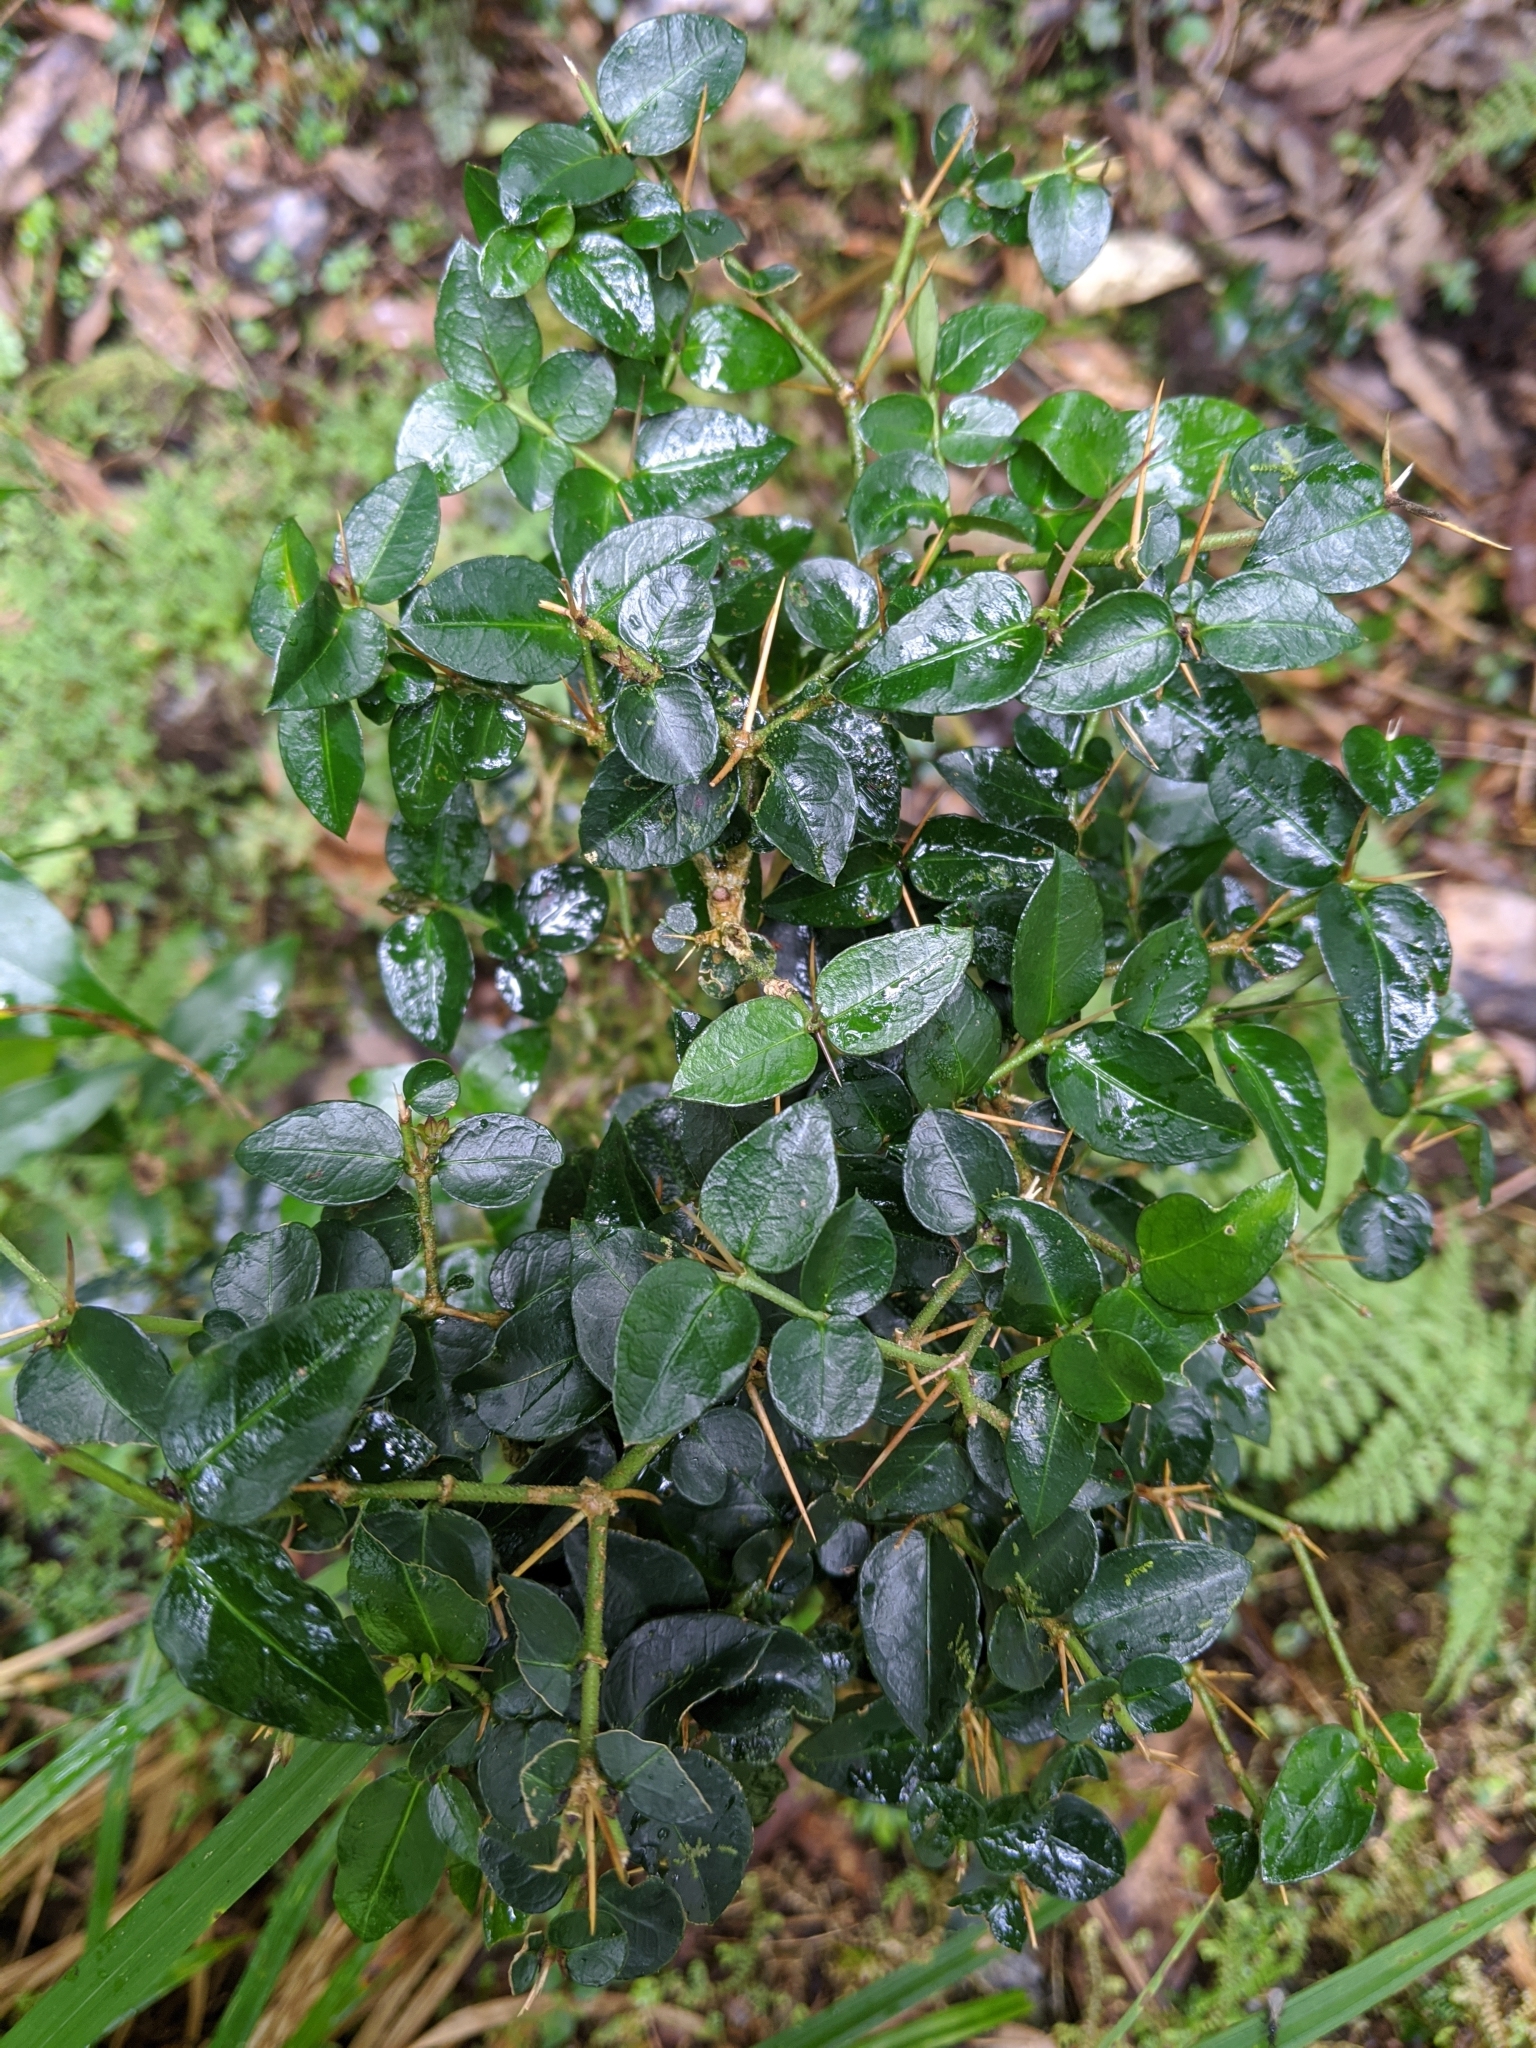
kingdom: Plantae
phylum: Tracheophyta
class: Magnoliopsida
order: Gentianales
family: Rubiaceae
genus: Damnacanthus
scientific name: Damnacanthus indicus
